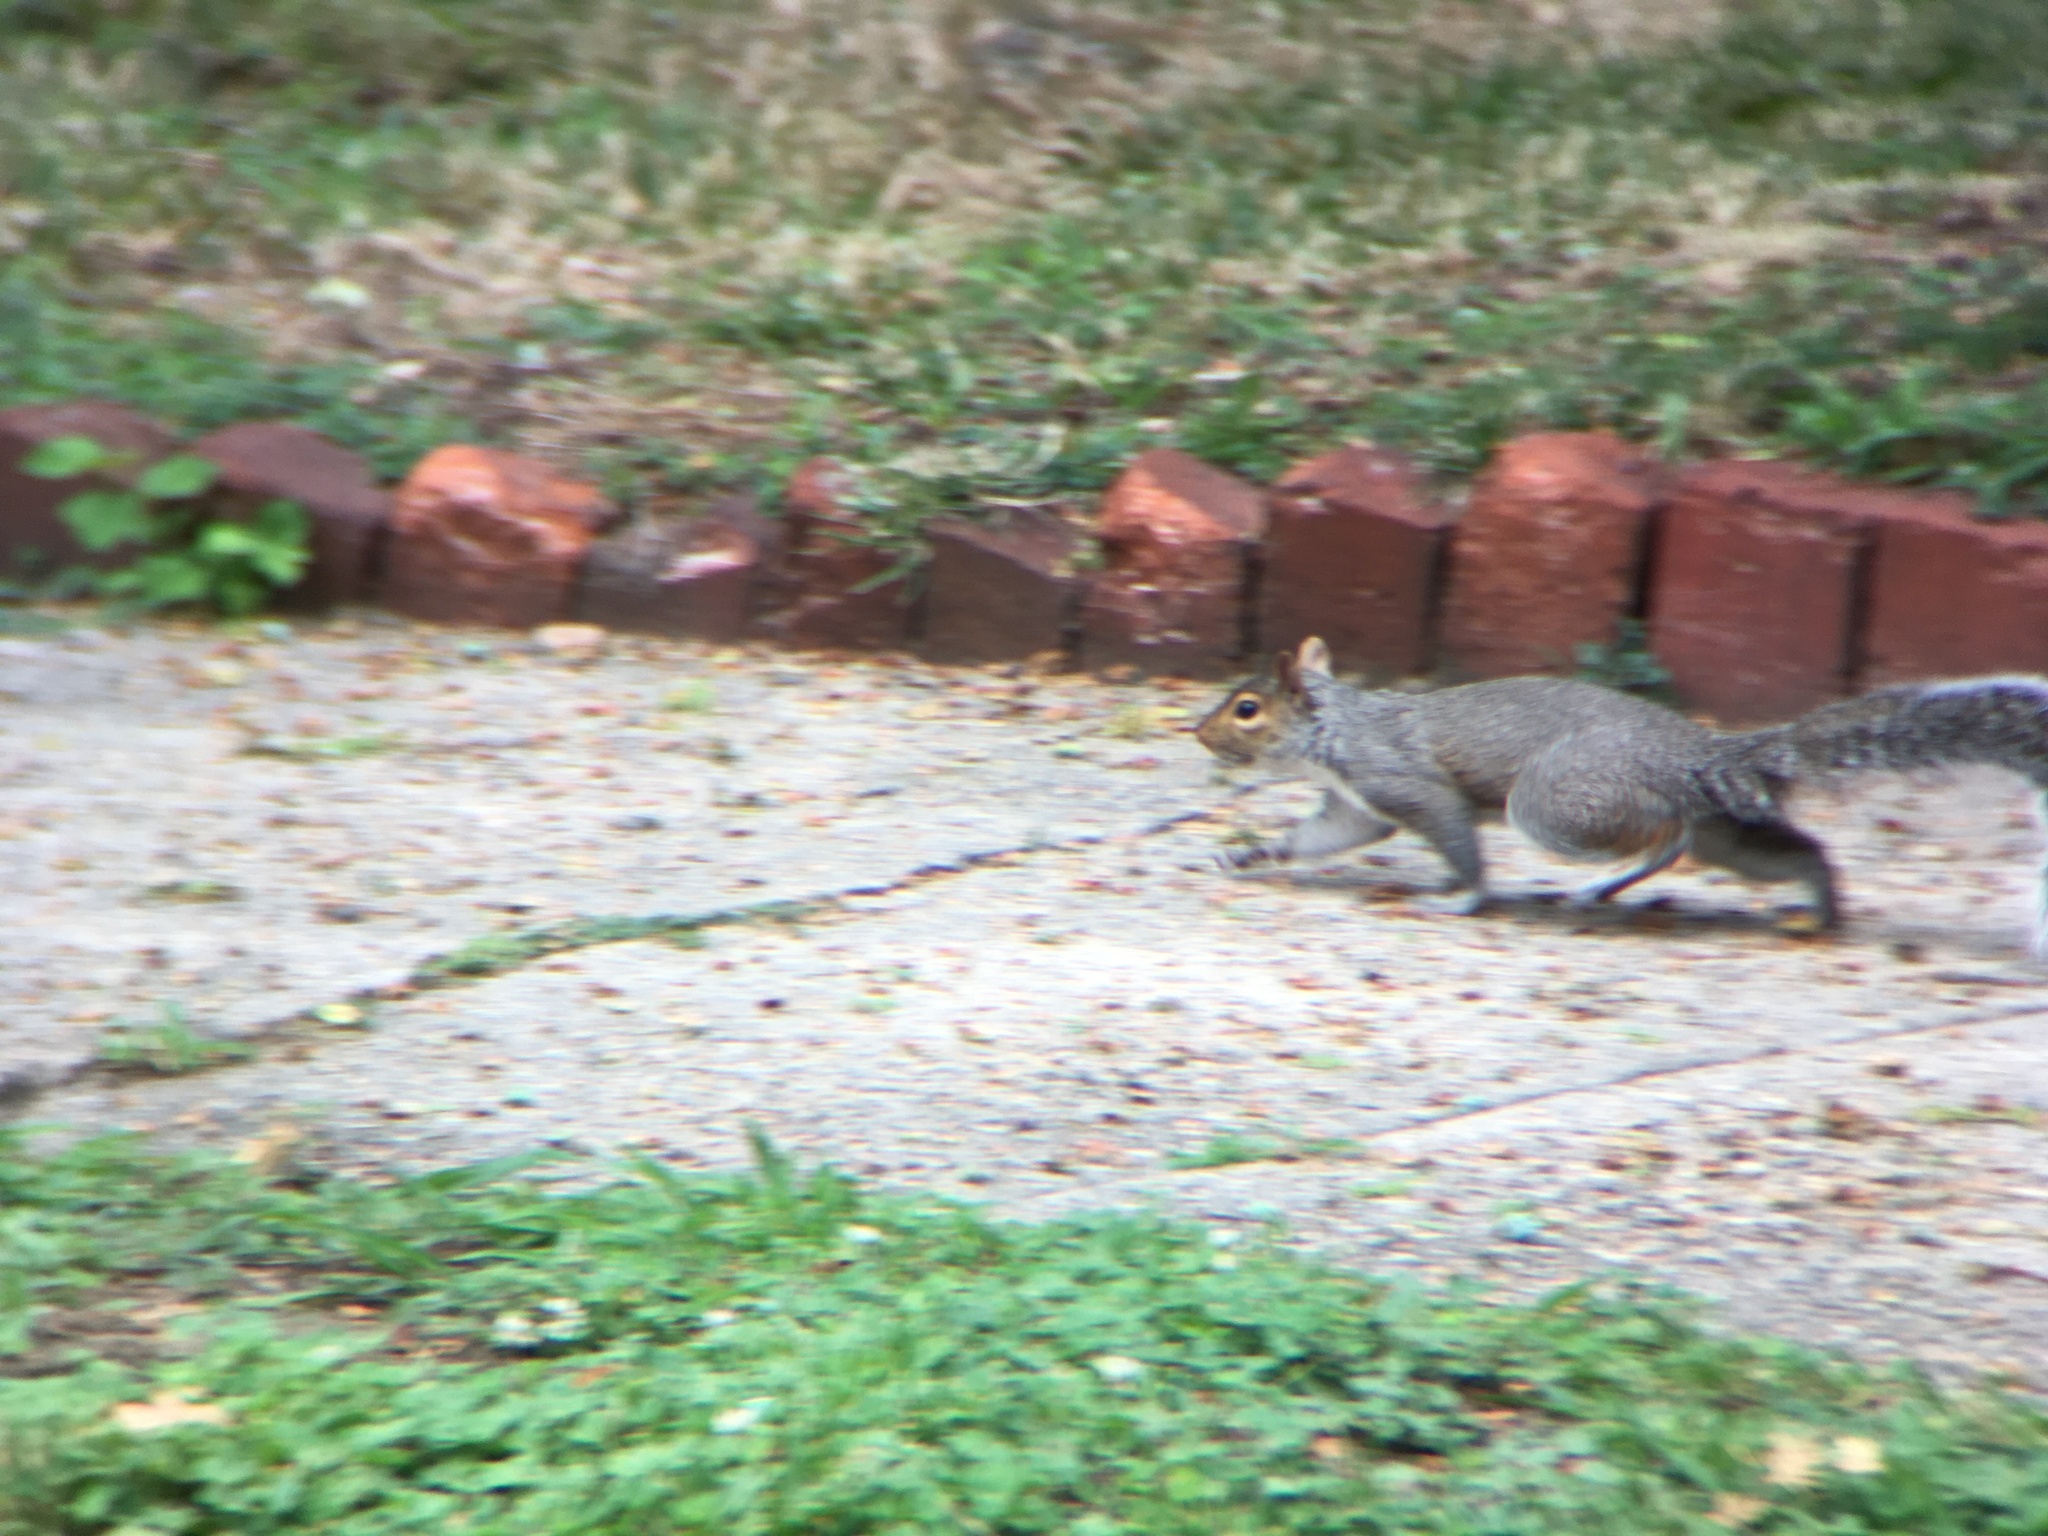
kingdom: Animalia
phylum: Chordata
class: Mammalia
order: Rodentia
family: Sciuridae
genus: Sciurus
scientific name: Sciurus carolinensis
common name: Eastern gray squirrel
